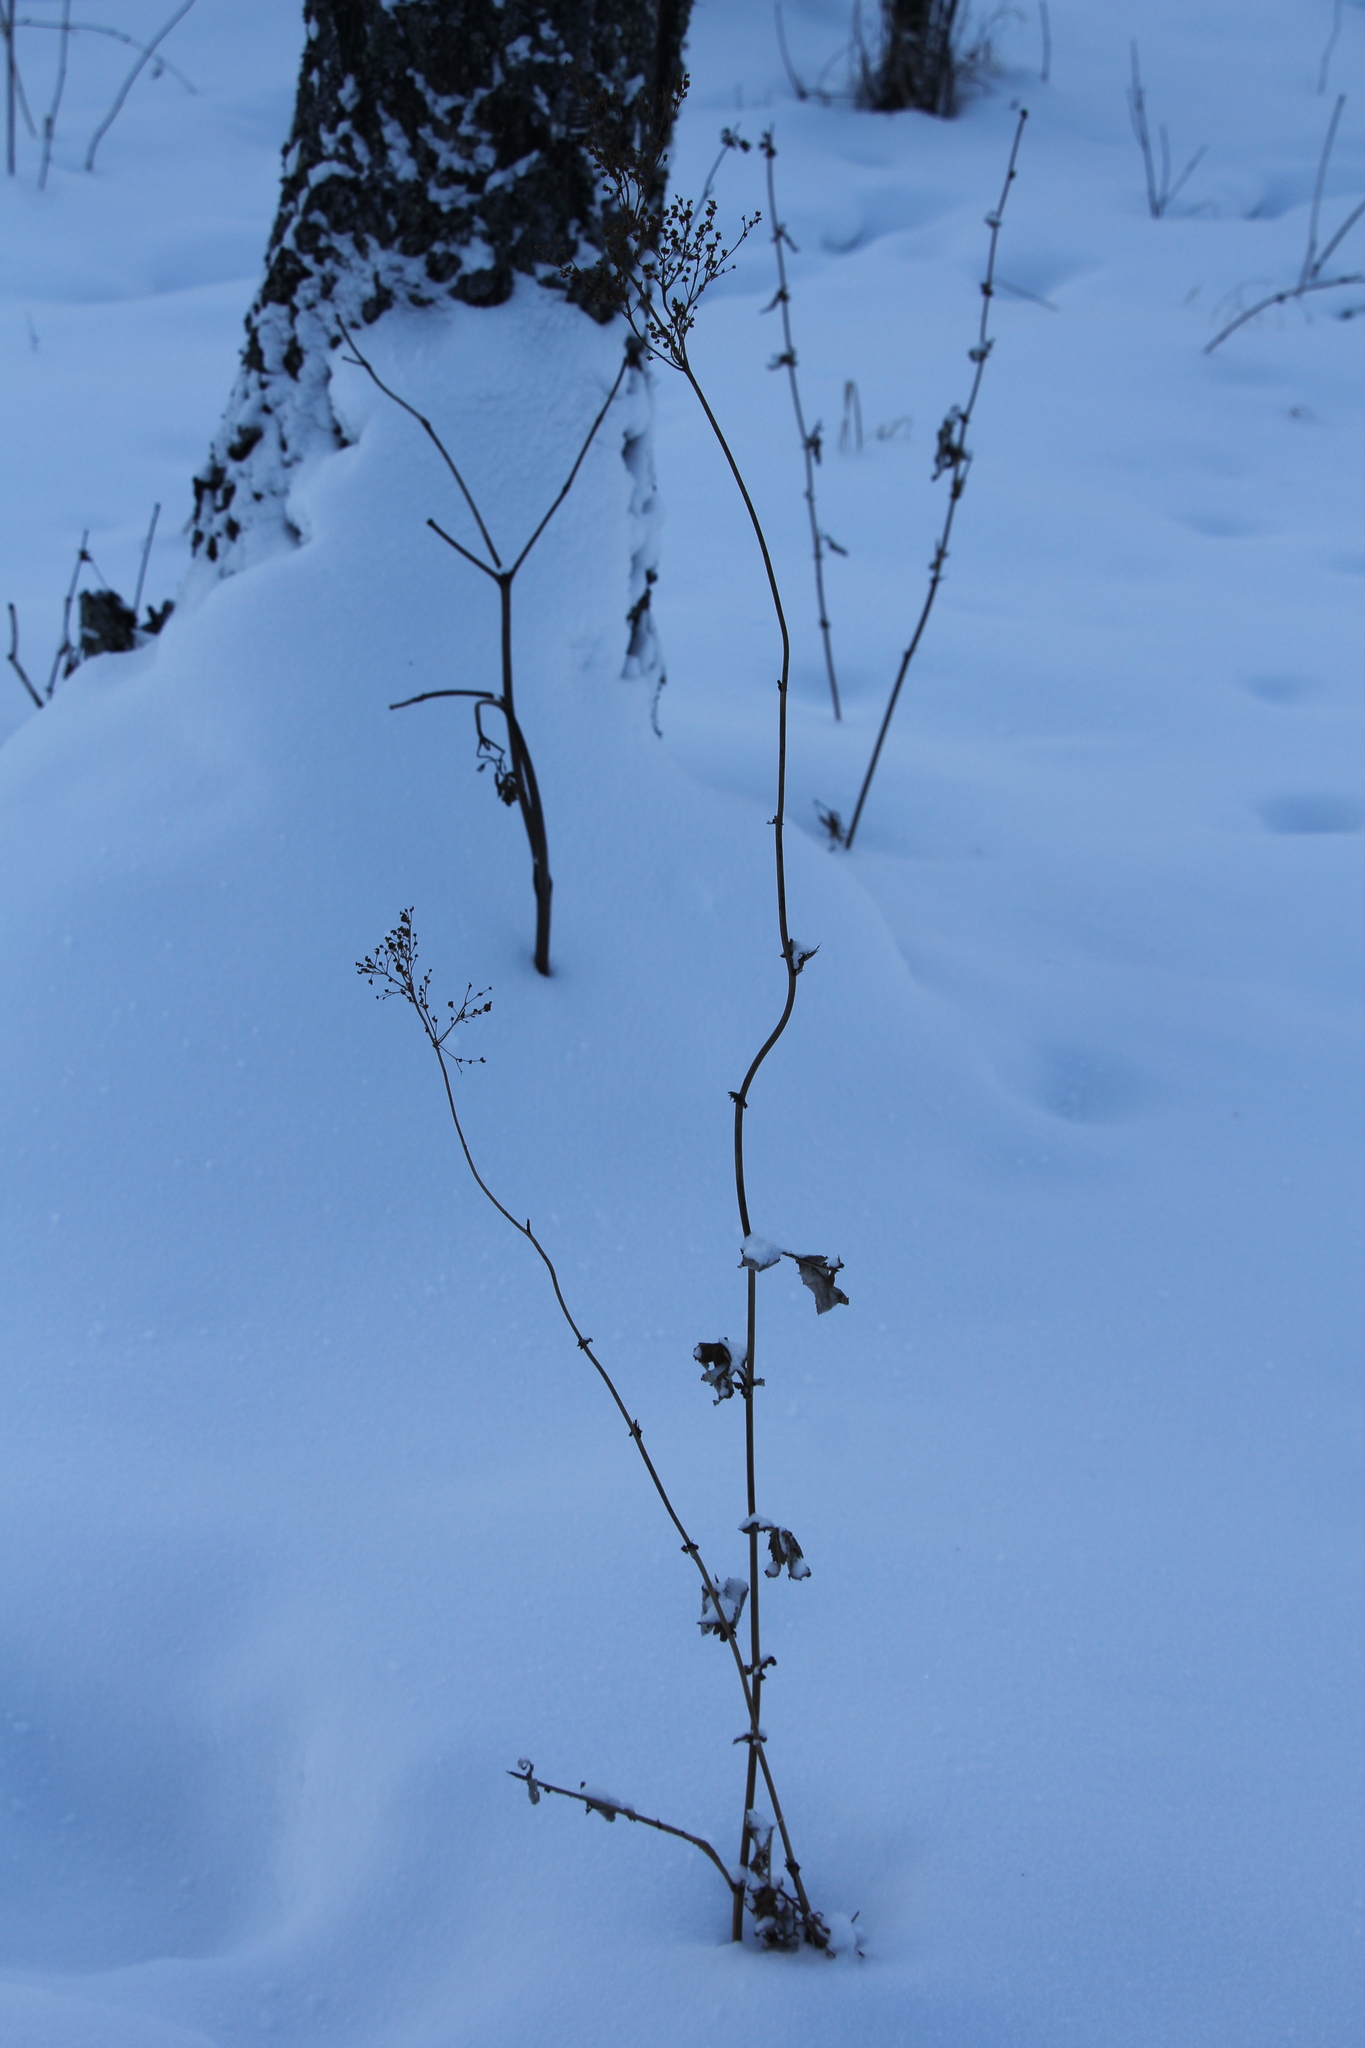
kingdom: Plantae
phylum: Tracheophyta
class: Magnoliopsida
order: Rosales
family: Rosaceae
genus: Filipendula
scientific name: Filipendula ulmaria
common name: Meadowsweet
